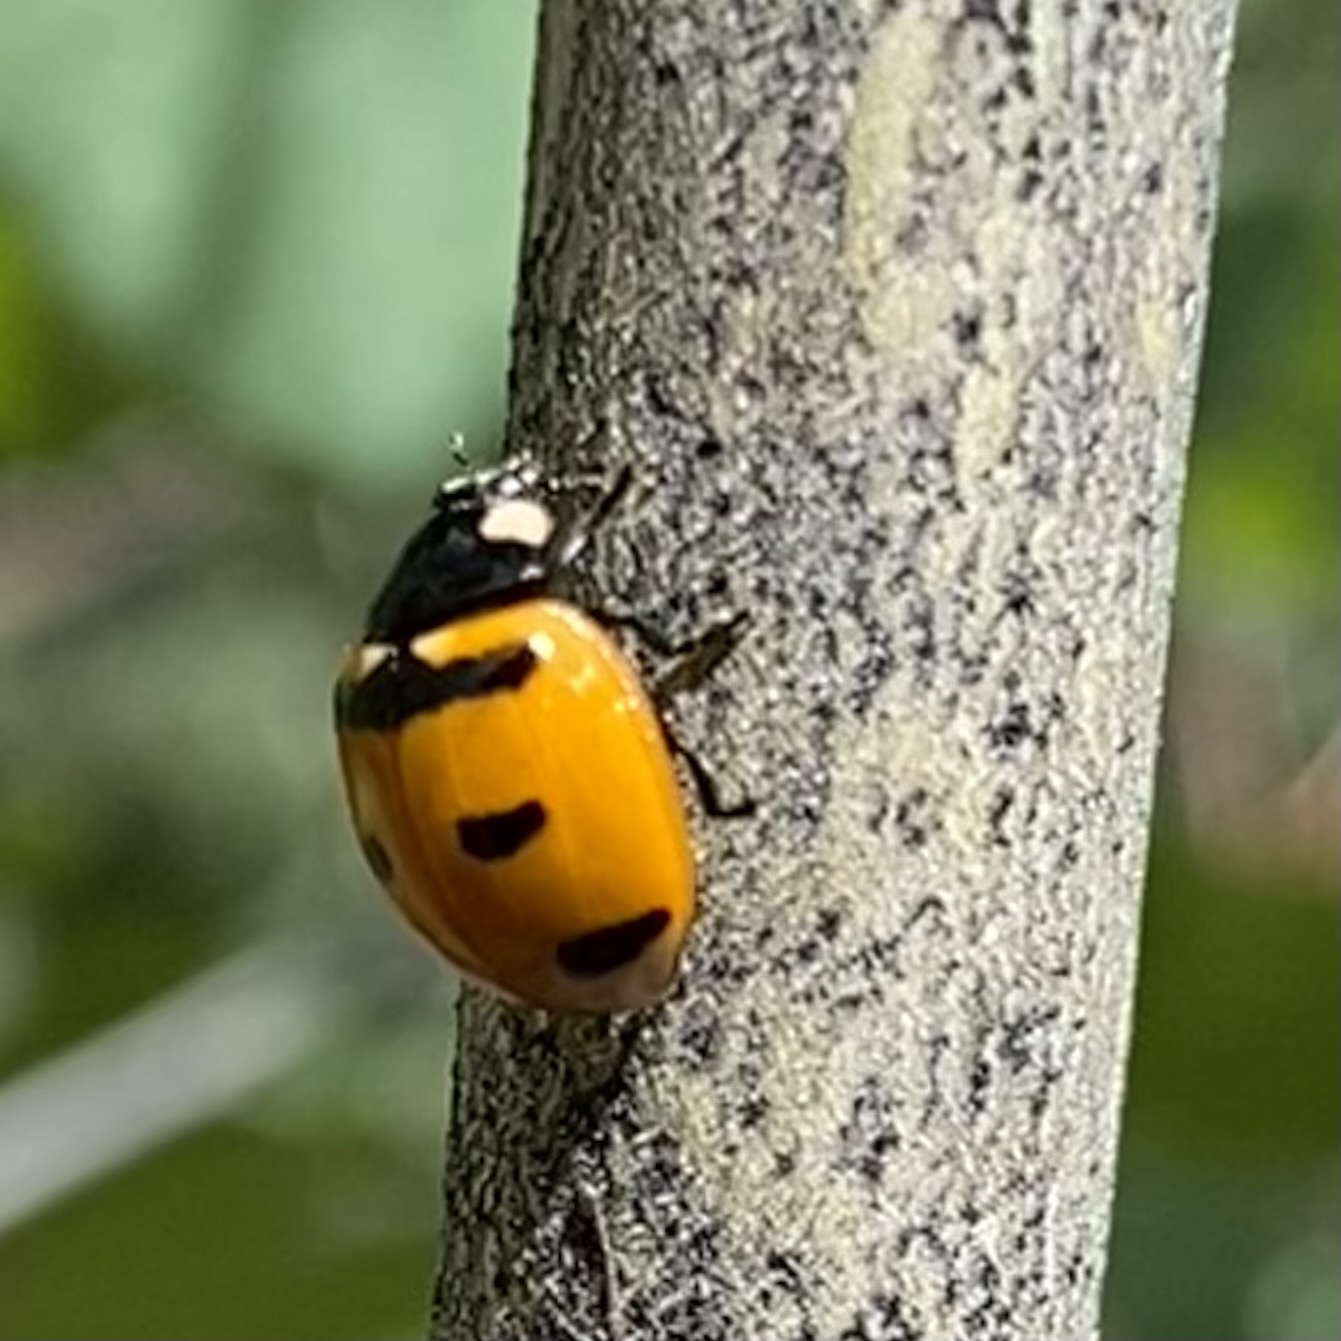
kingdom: Animalia
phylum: Arthropoda
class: Insecta
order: Coleoptera
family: Coccinellidae
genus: Coccinella
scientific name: Coccinella transversoguttata
